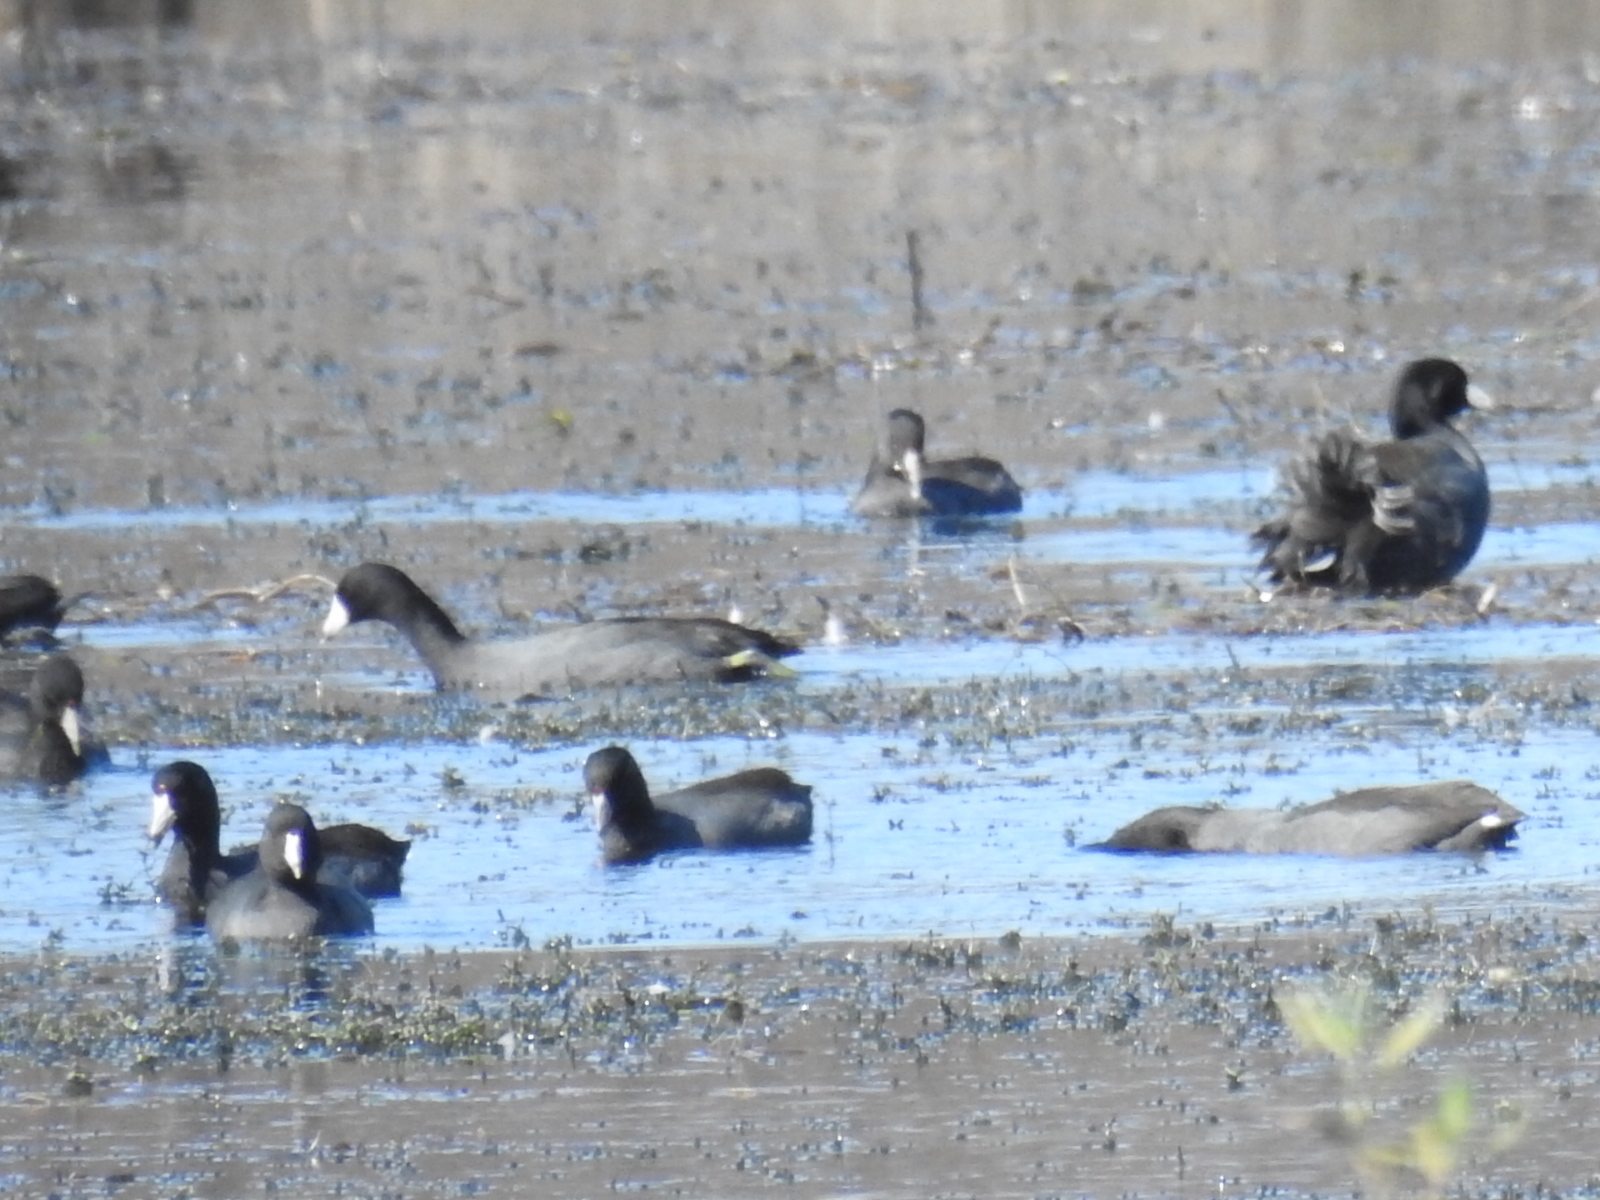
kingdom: Animalia
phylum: Chordata
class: Aves
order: Gruiformes
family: Rallidae
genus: Fulica
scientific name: Fulica americana
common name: American coot
